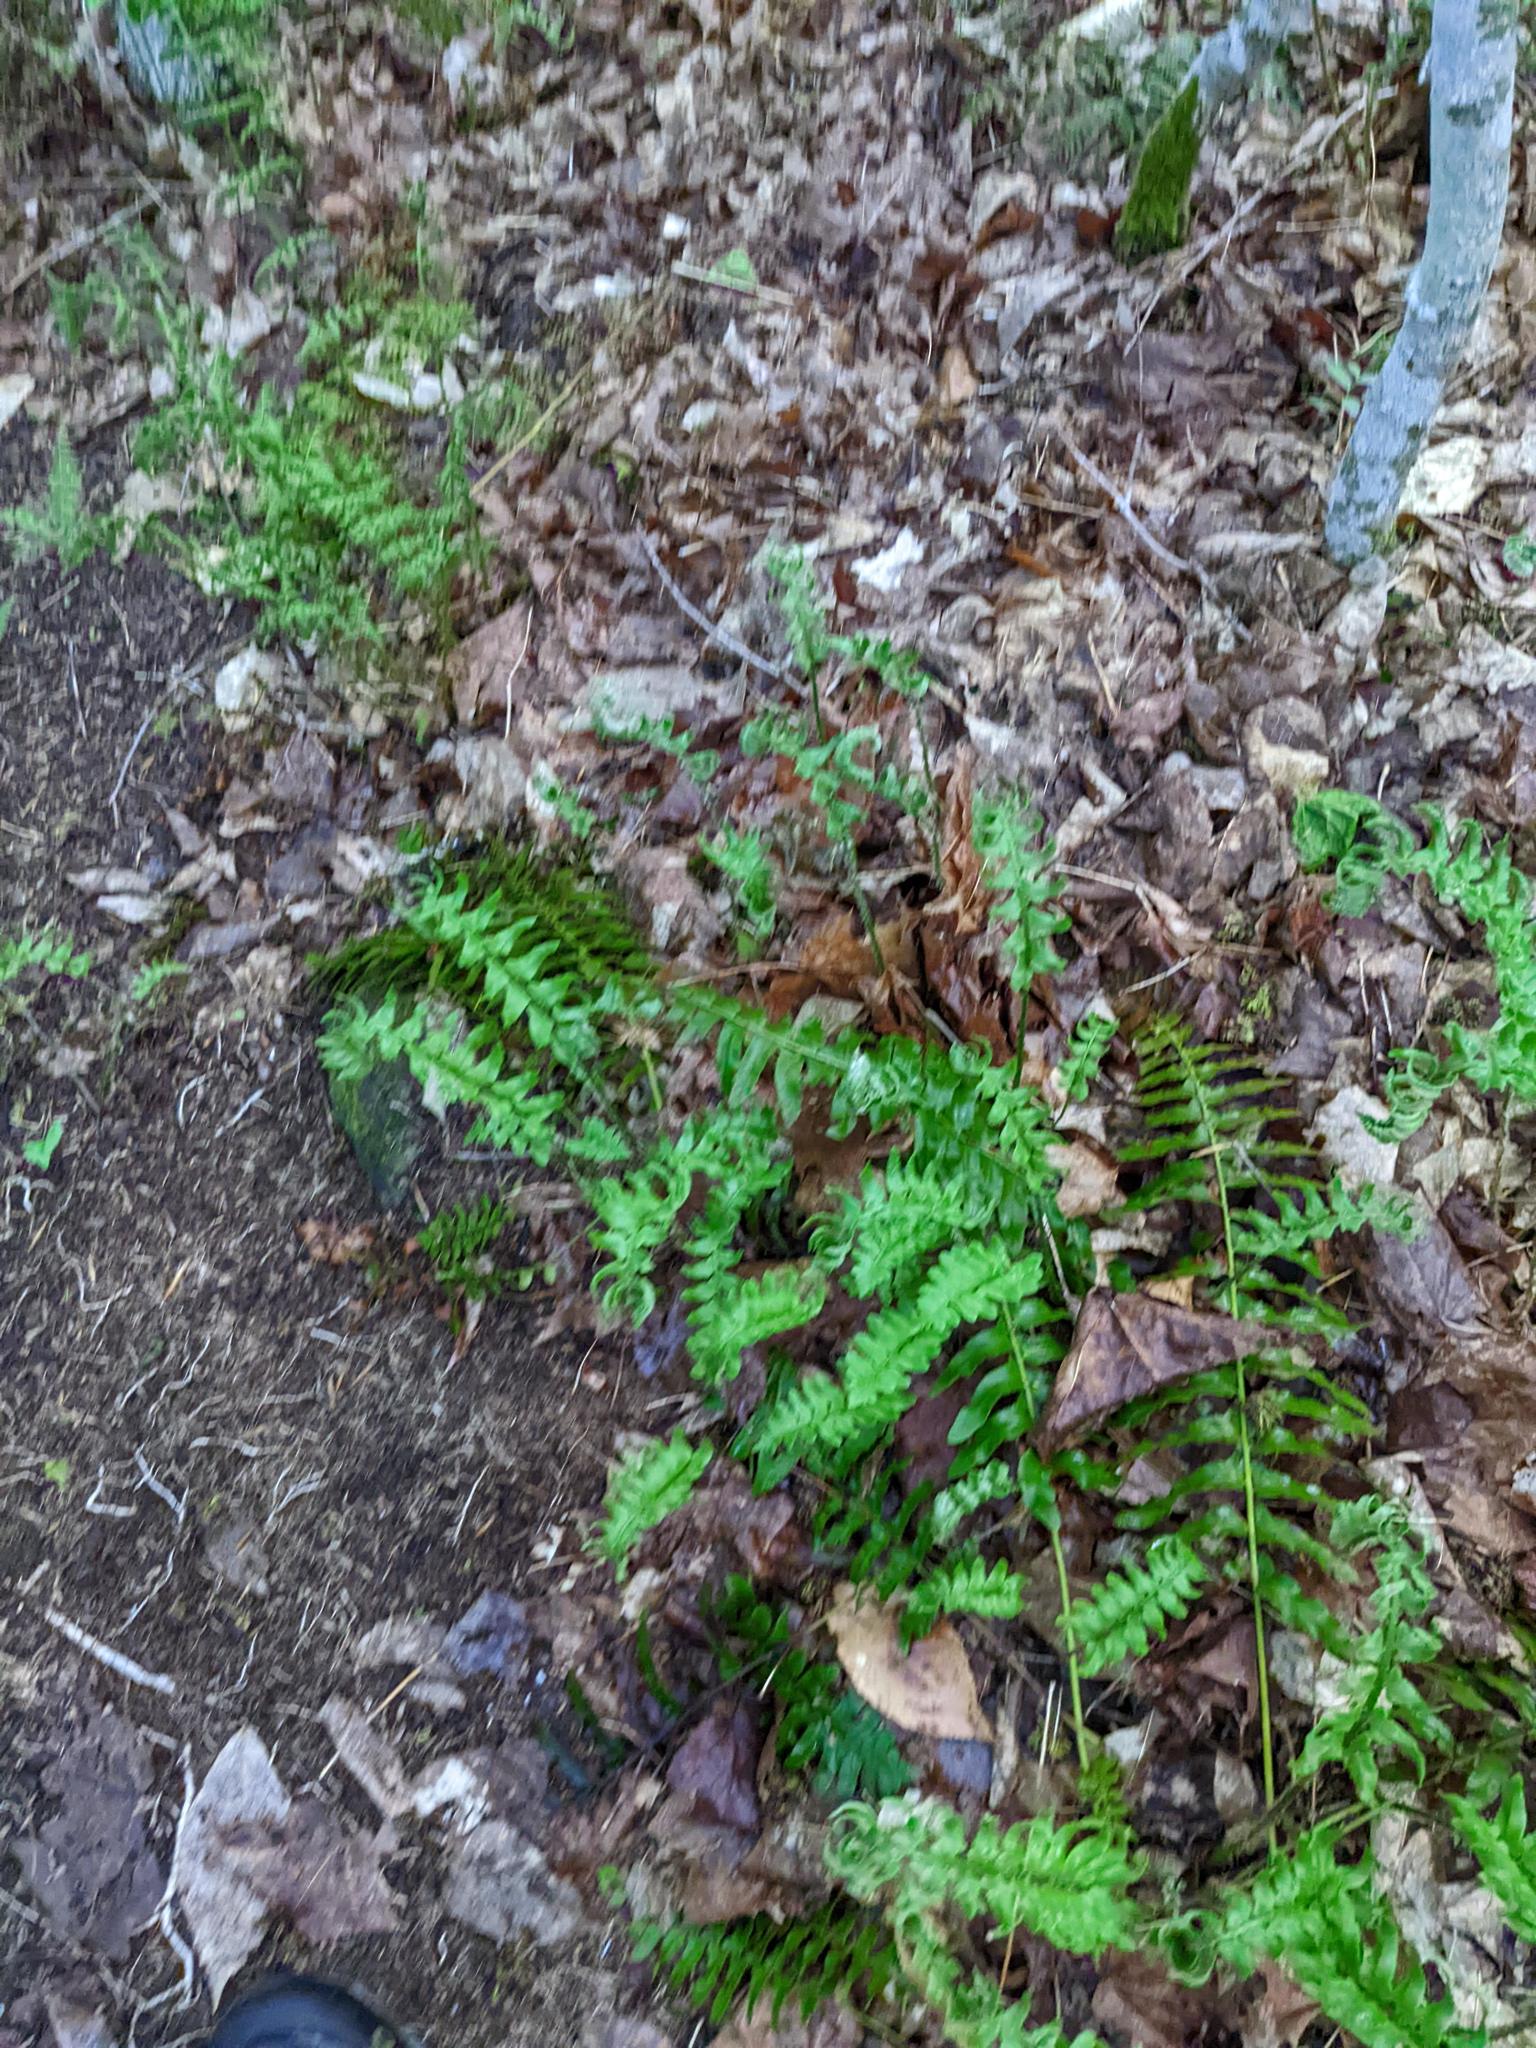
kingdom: Plantae
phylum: Tracheophyta
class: Polypodiopsida
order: Polypodiales
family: Dryopteridaceae
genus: Polystichum
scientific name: Polystichum acrostichoides
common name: Christmas fern
